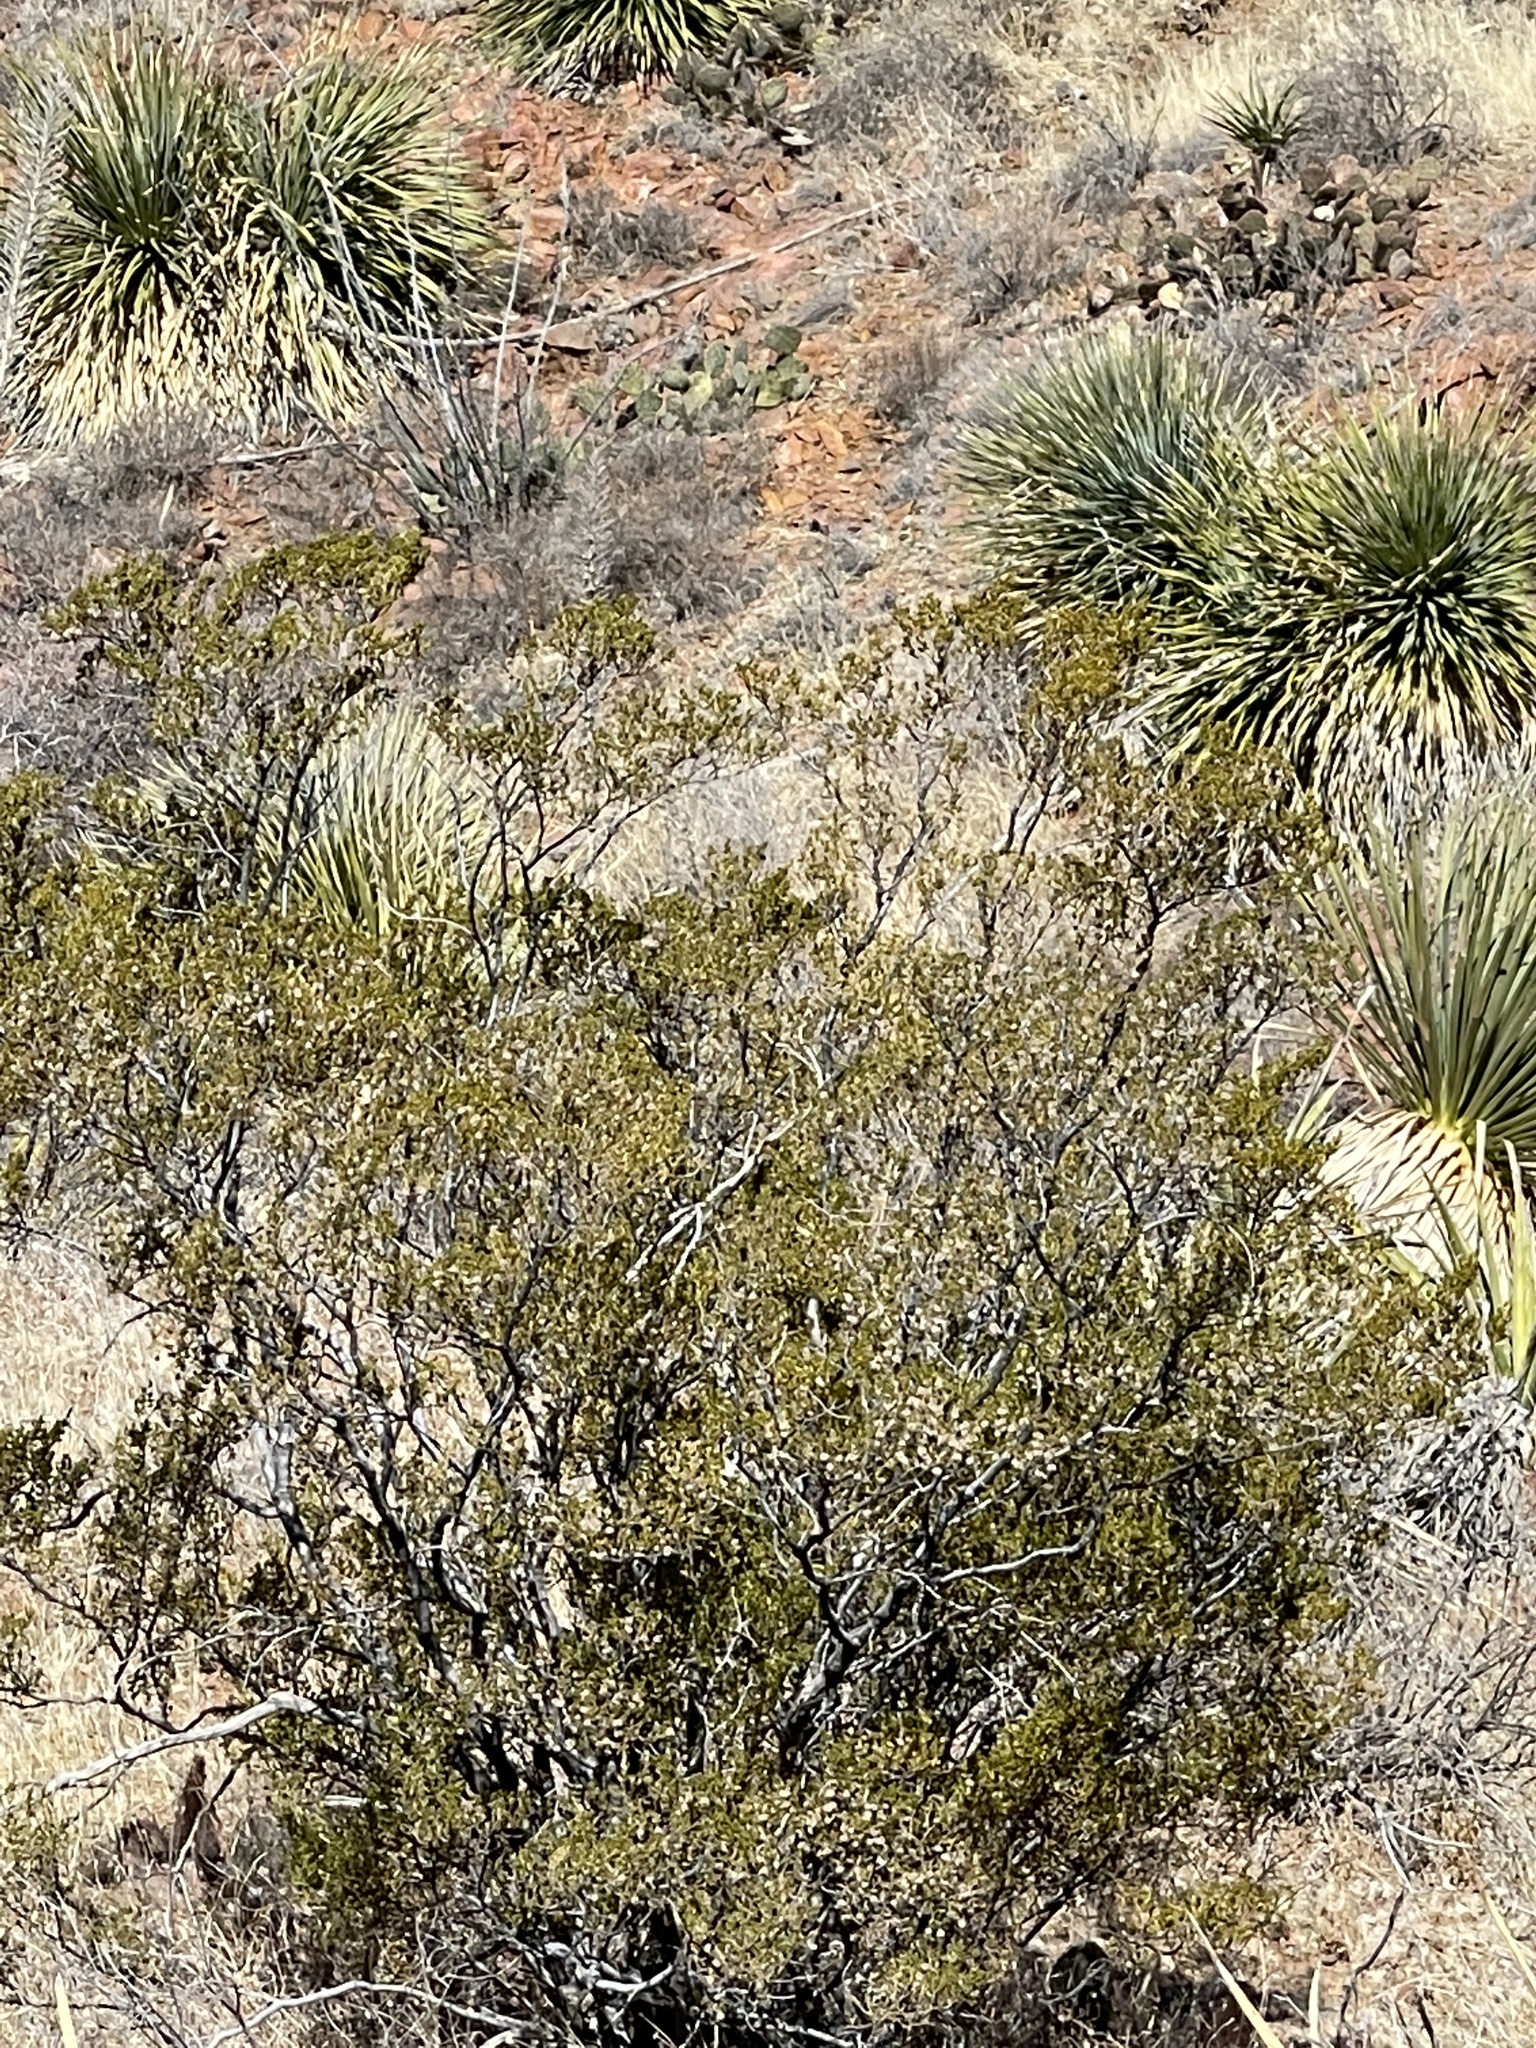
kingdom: Plantae
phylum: Tracheophyta
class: Magnoliopsida
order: Zygophyllales
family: Zygophyllaceae
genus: Larrea
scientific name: Larrea tridentata
